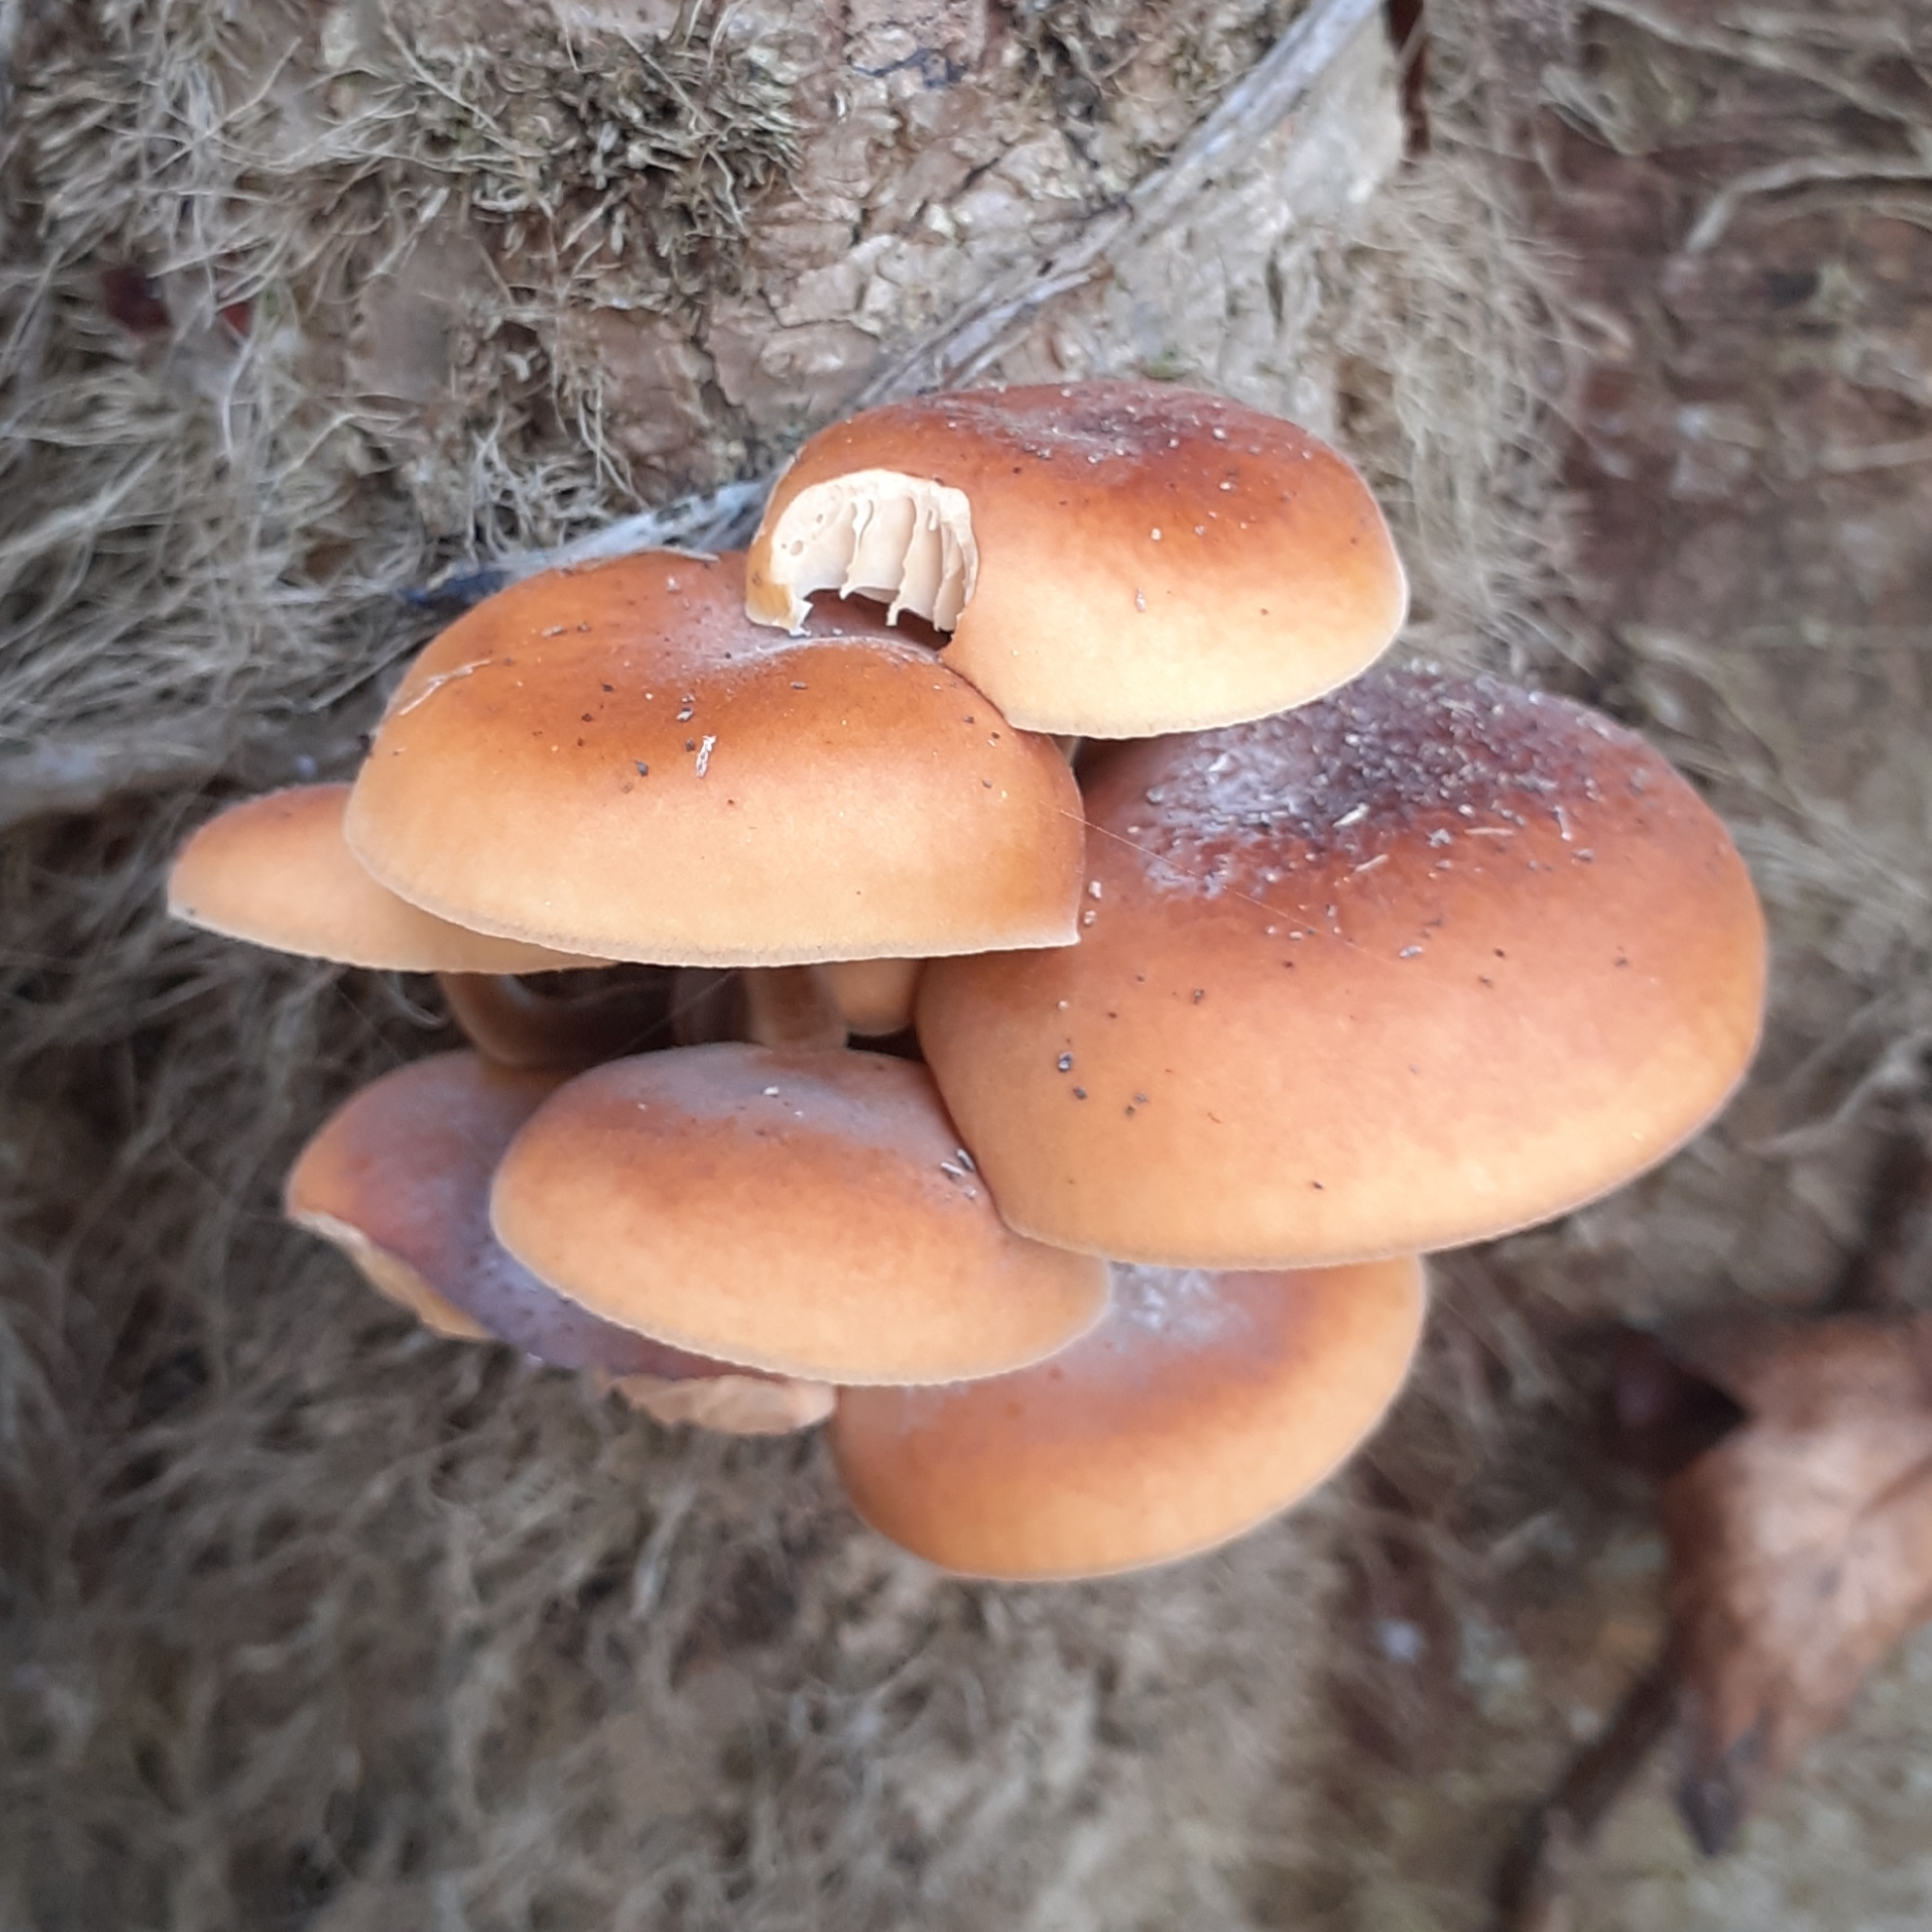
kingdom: Fungi
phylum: Basidiomycota
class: Agaricomycetes
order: Agaricales
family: Physalacriaceae
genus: Flammulina
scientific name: Flammulina
